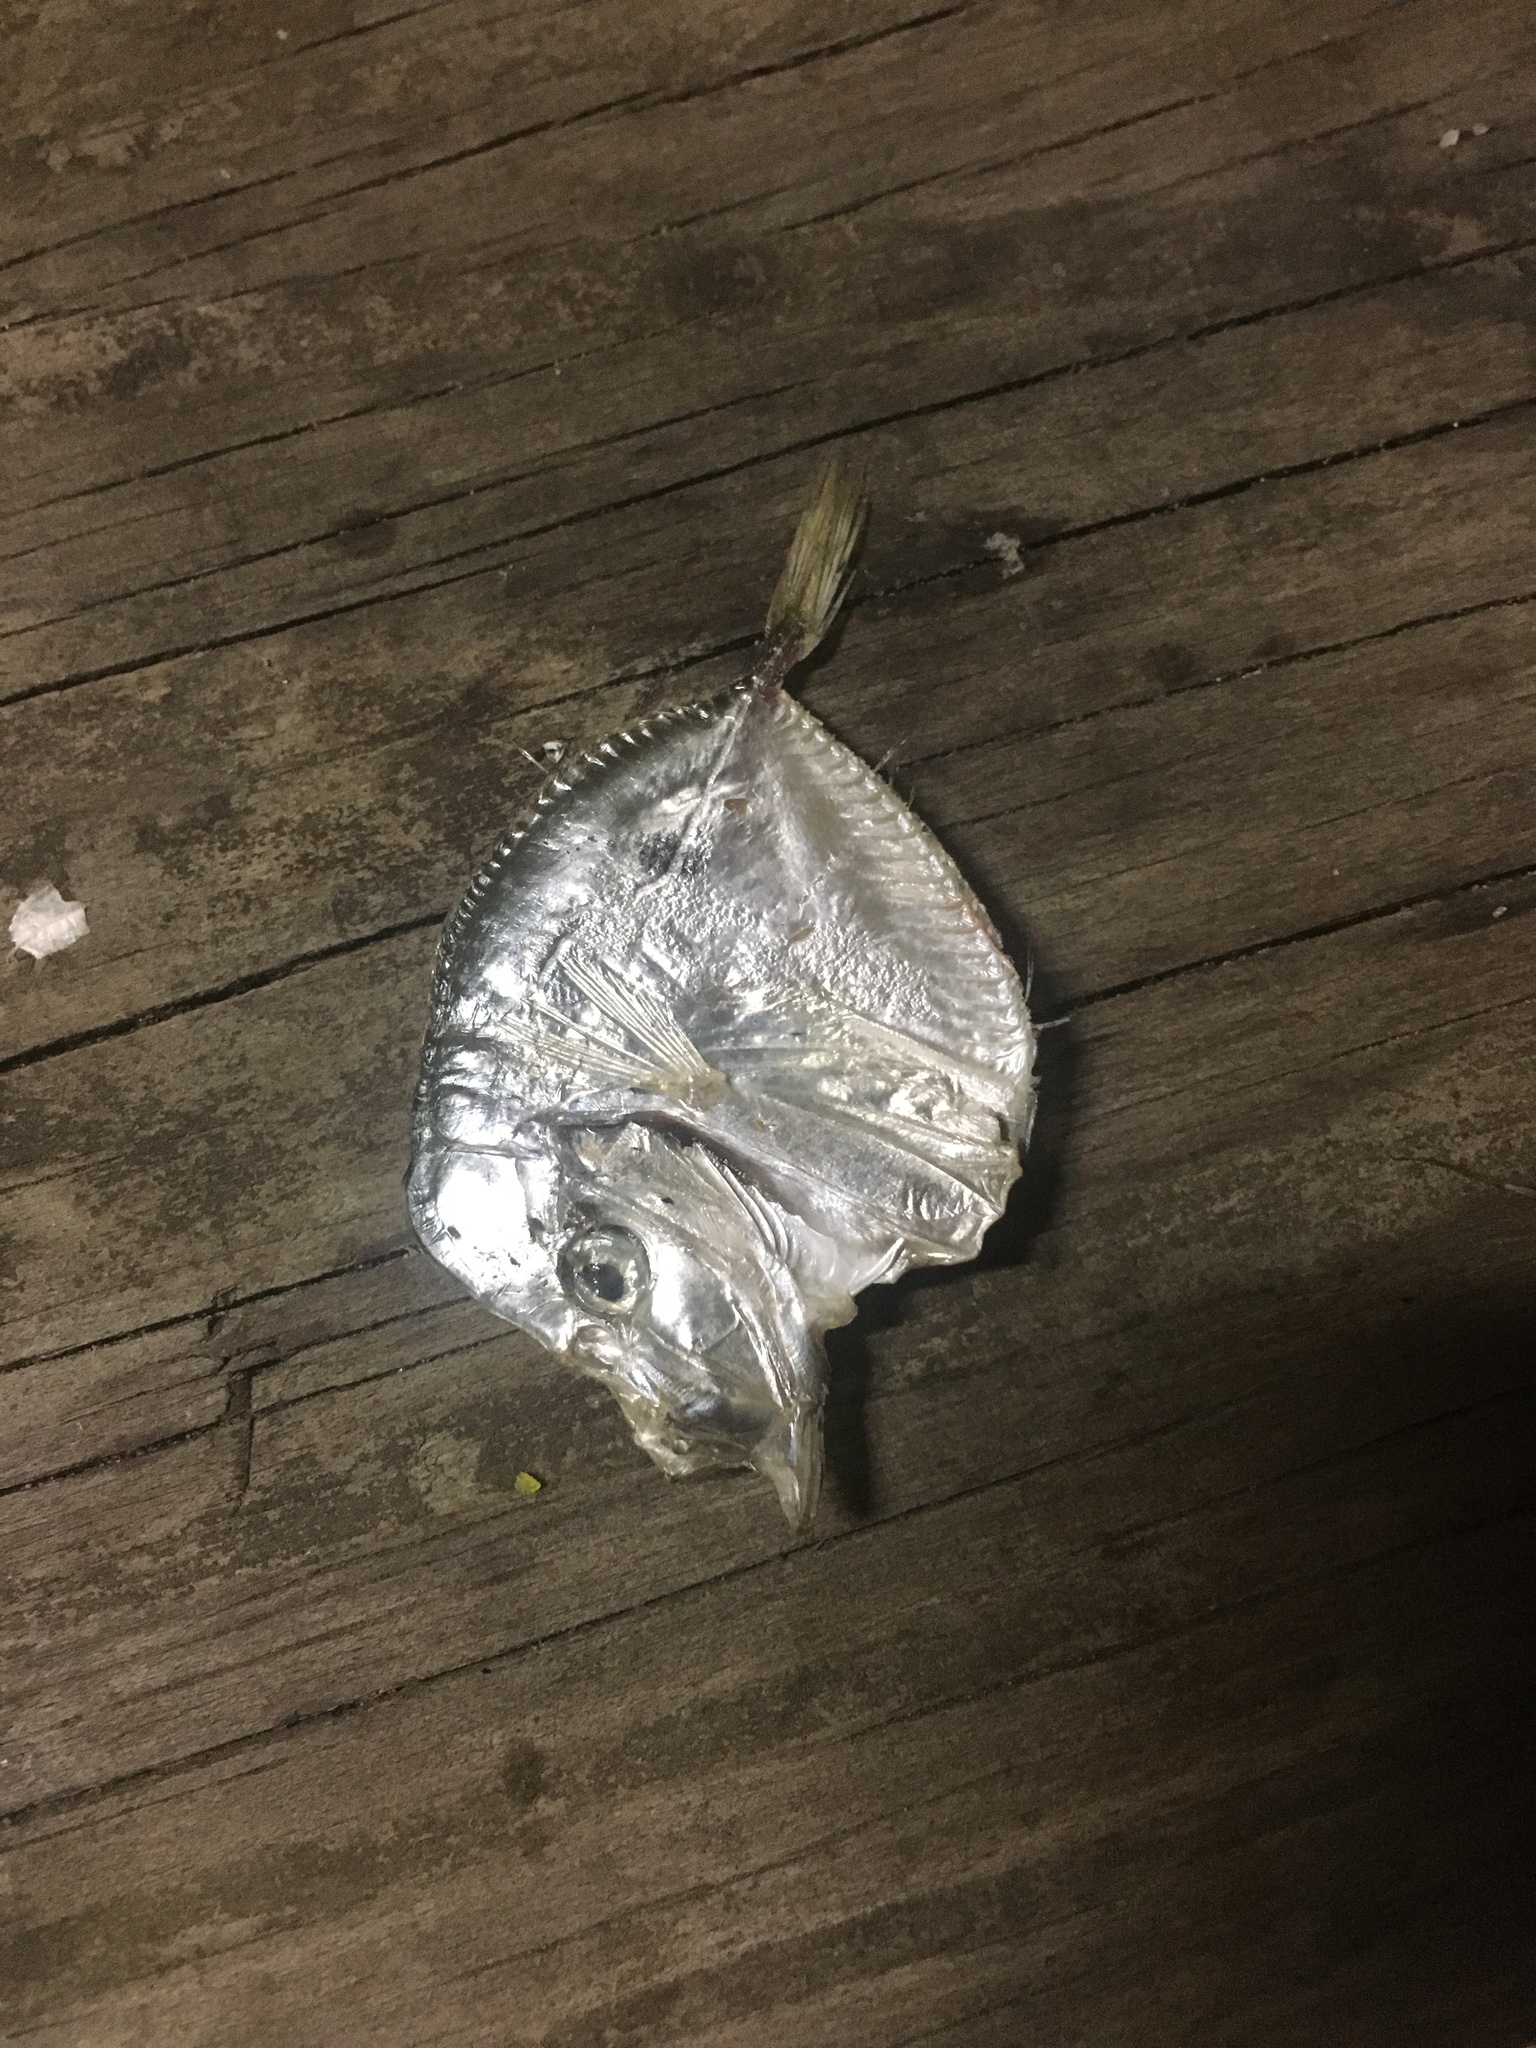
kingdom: Animalia
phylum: Chordata
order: Perciformes
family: Carangidae
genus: Selene
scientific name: Selene setapinnis
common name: Moonfish
